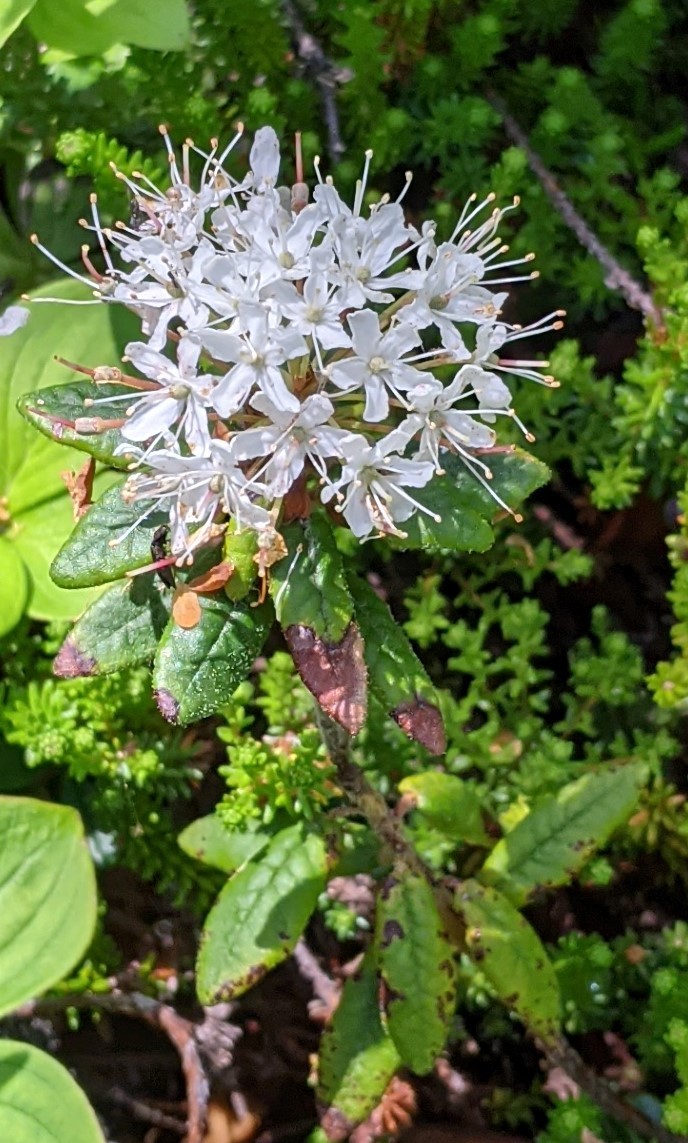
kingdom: Plantae
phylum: Tracheophyta
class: Magnoliopsida
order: Ericales
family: Ericaceae
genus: Rhododendron
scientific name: Rhododendron groenlandicum
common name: Bog labrador tea
